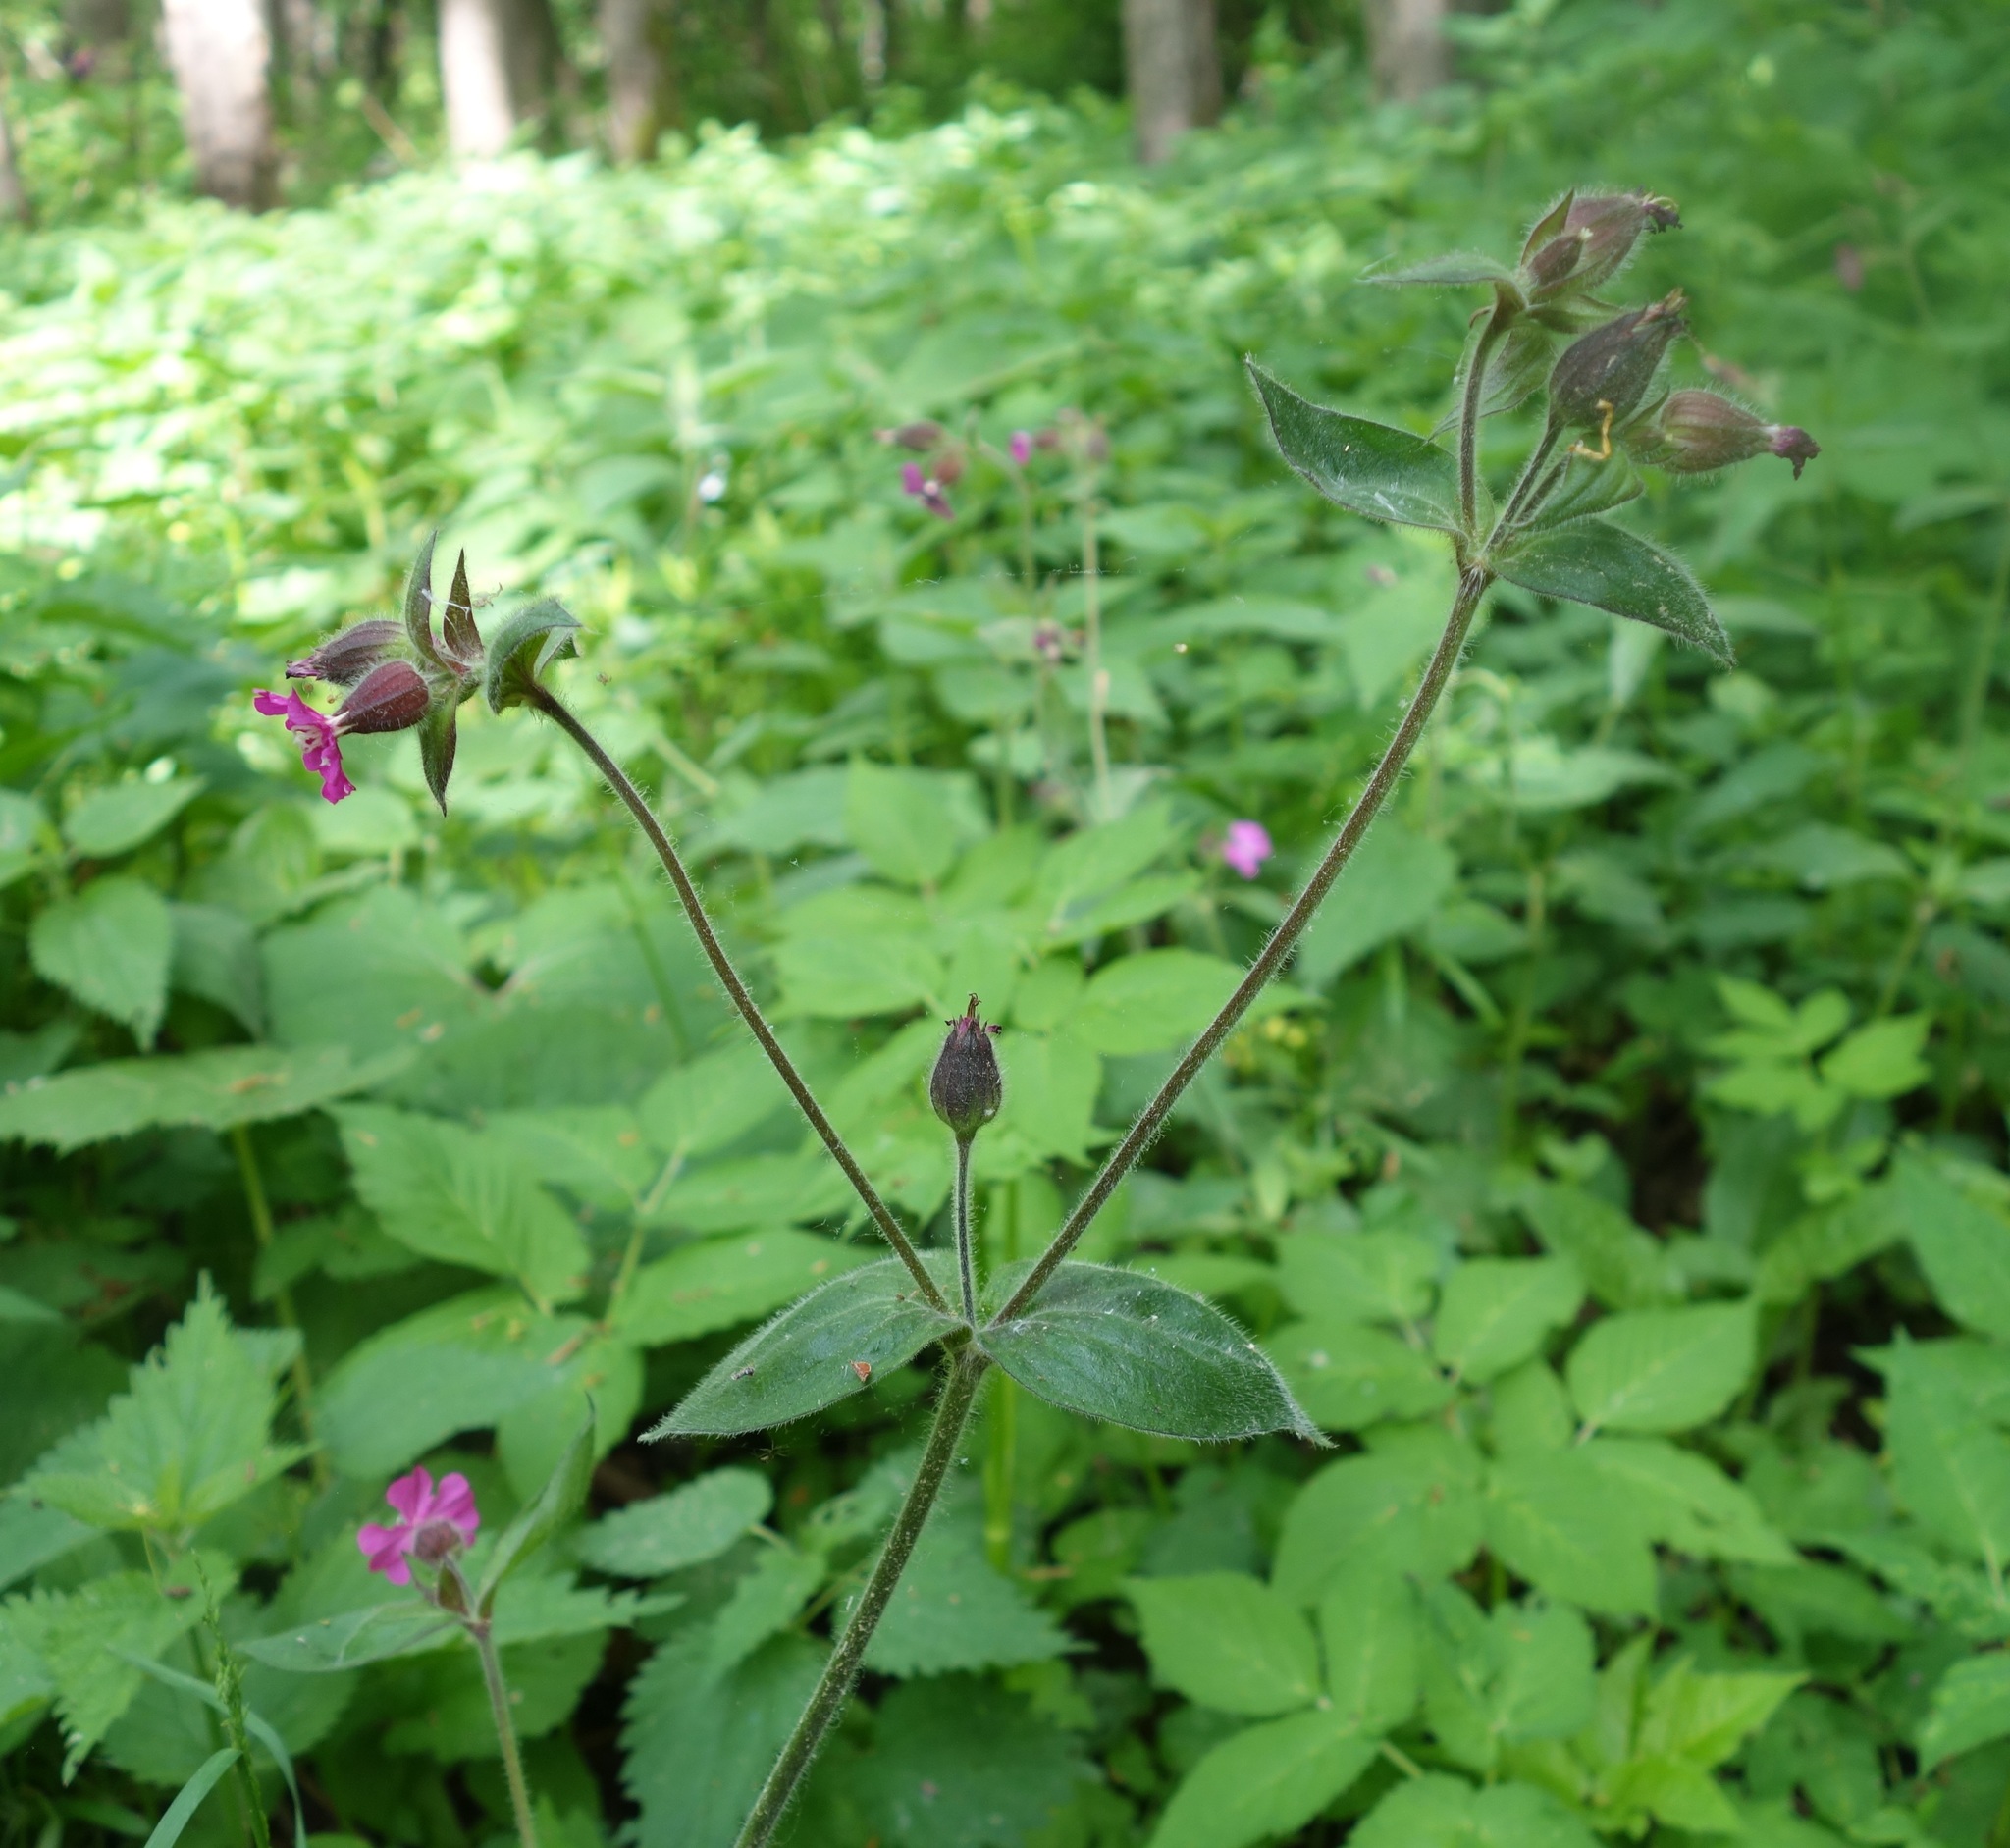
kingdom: Plantae
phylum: Tracheophyta
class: Magnoliopsida
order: Caryophyllales
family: Caryophyllaceae
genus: Silene
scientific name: Silene dioica
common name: Red campion
